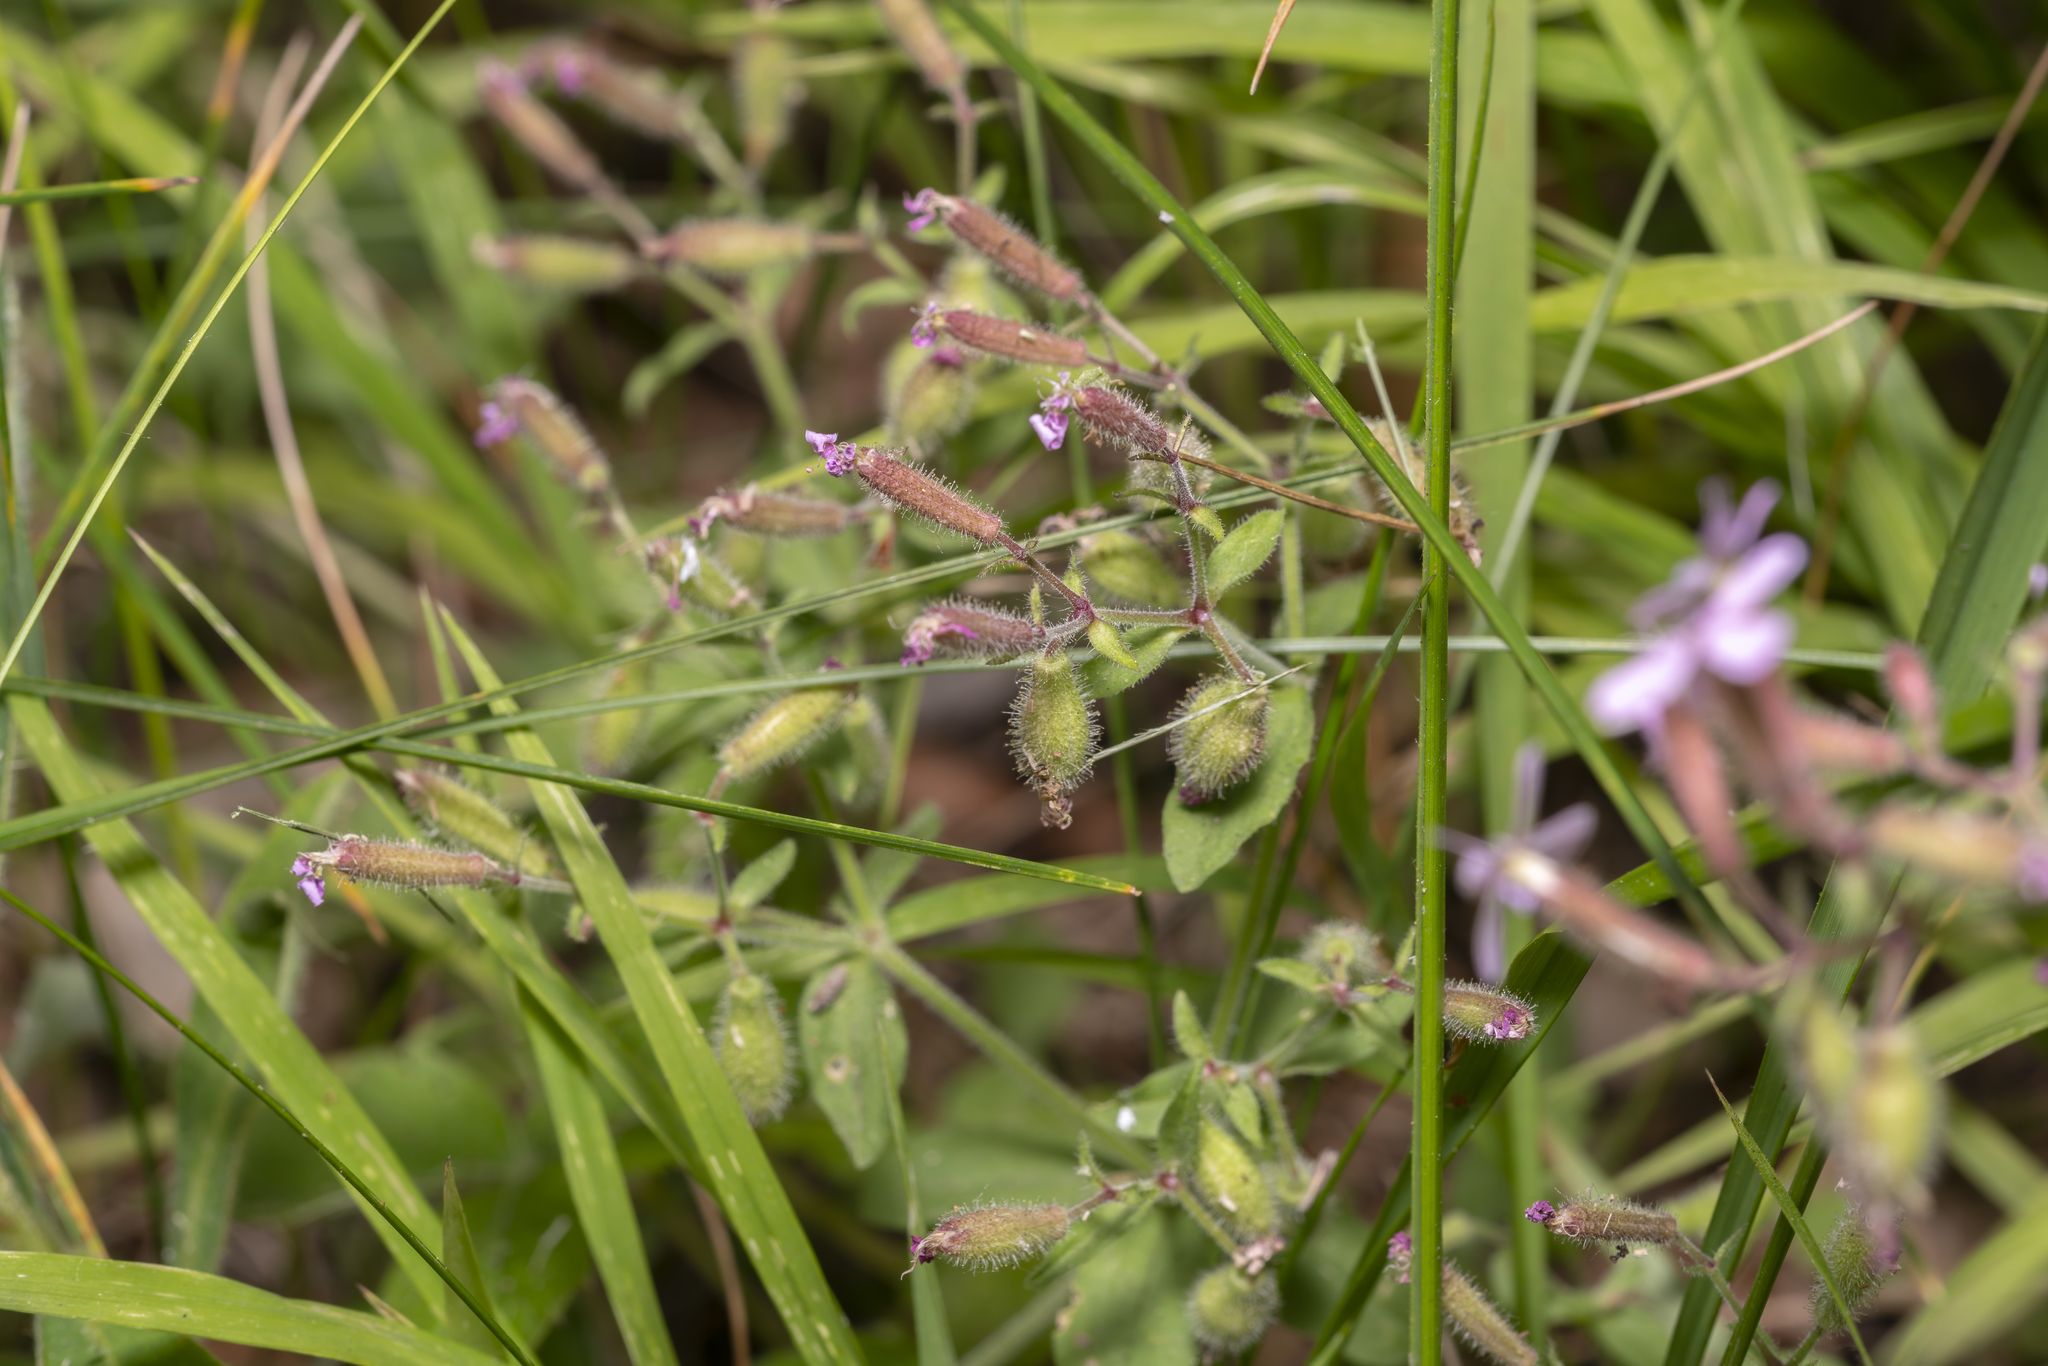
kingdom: Plantae
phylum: Tracheophyta
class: Magnoliopsida
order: Caryophyllales
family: Caryophyllaceae
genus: Saponaria
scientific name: Saponaria ocymoides
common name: Rock soapwort
